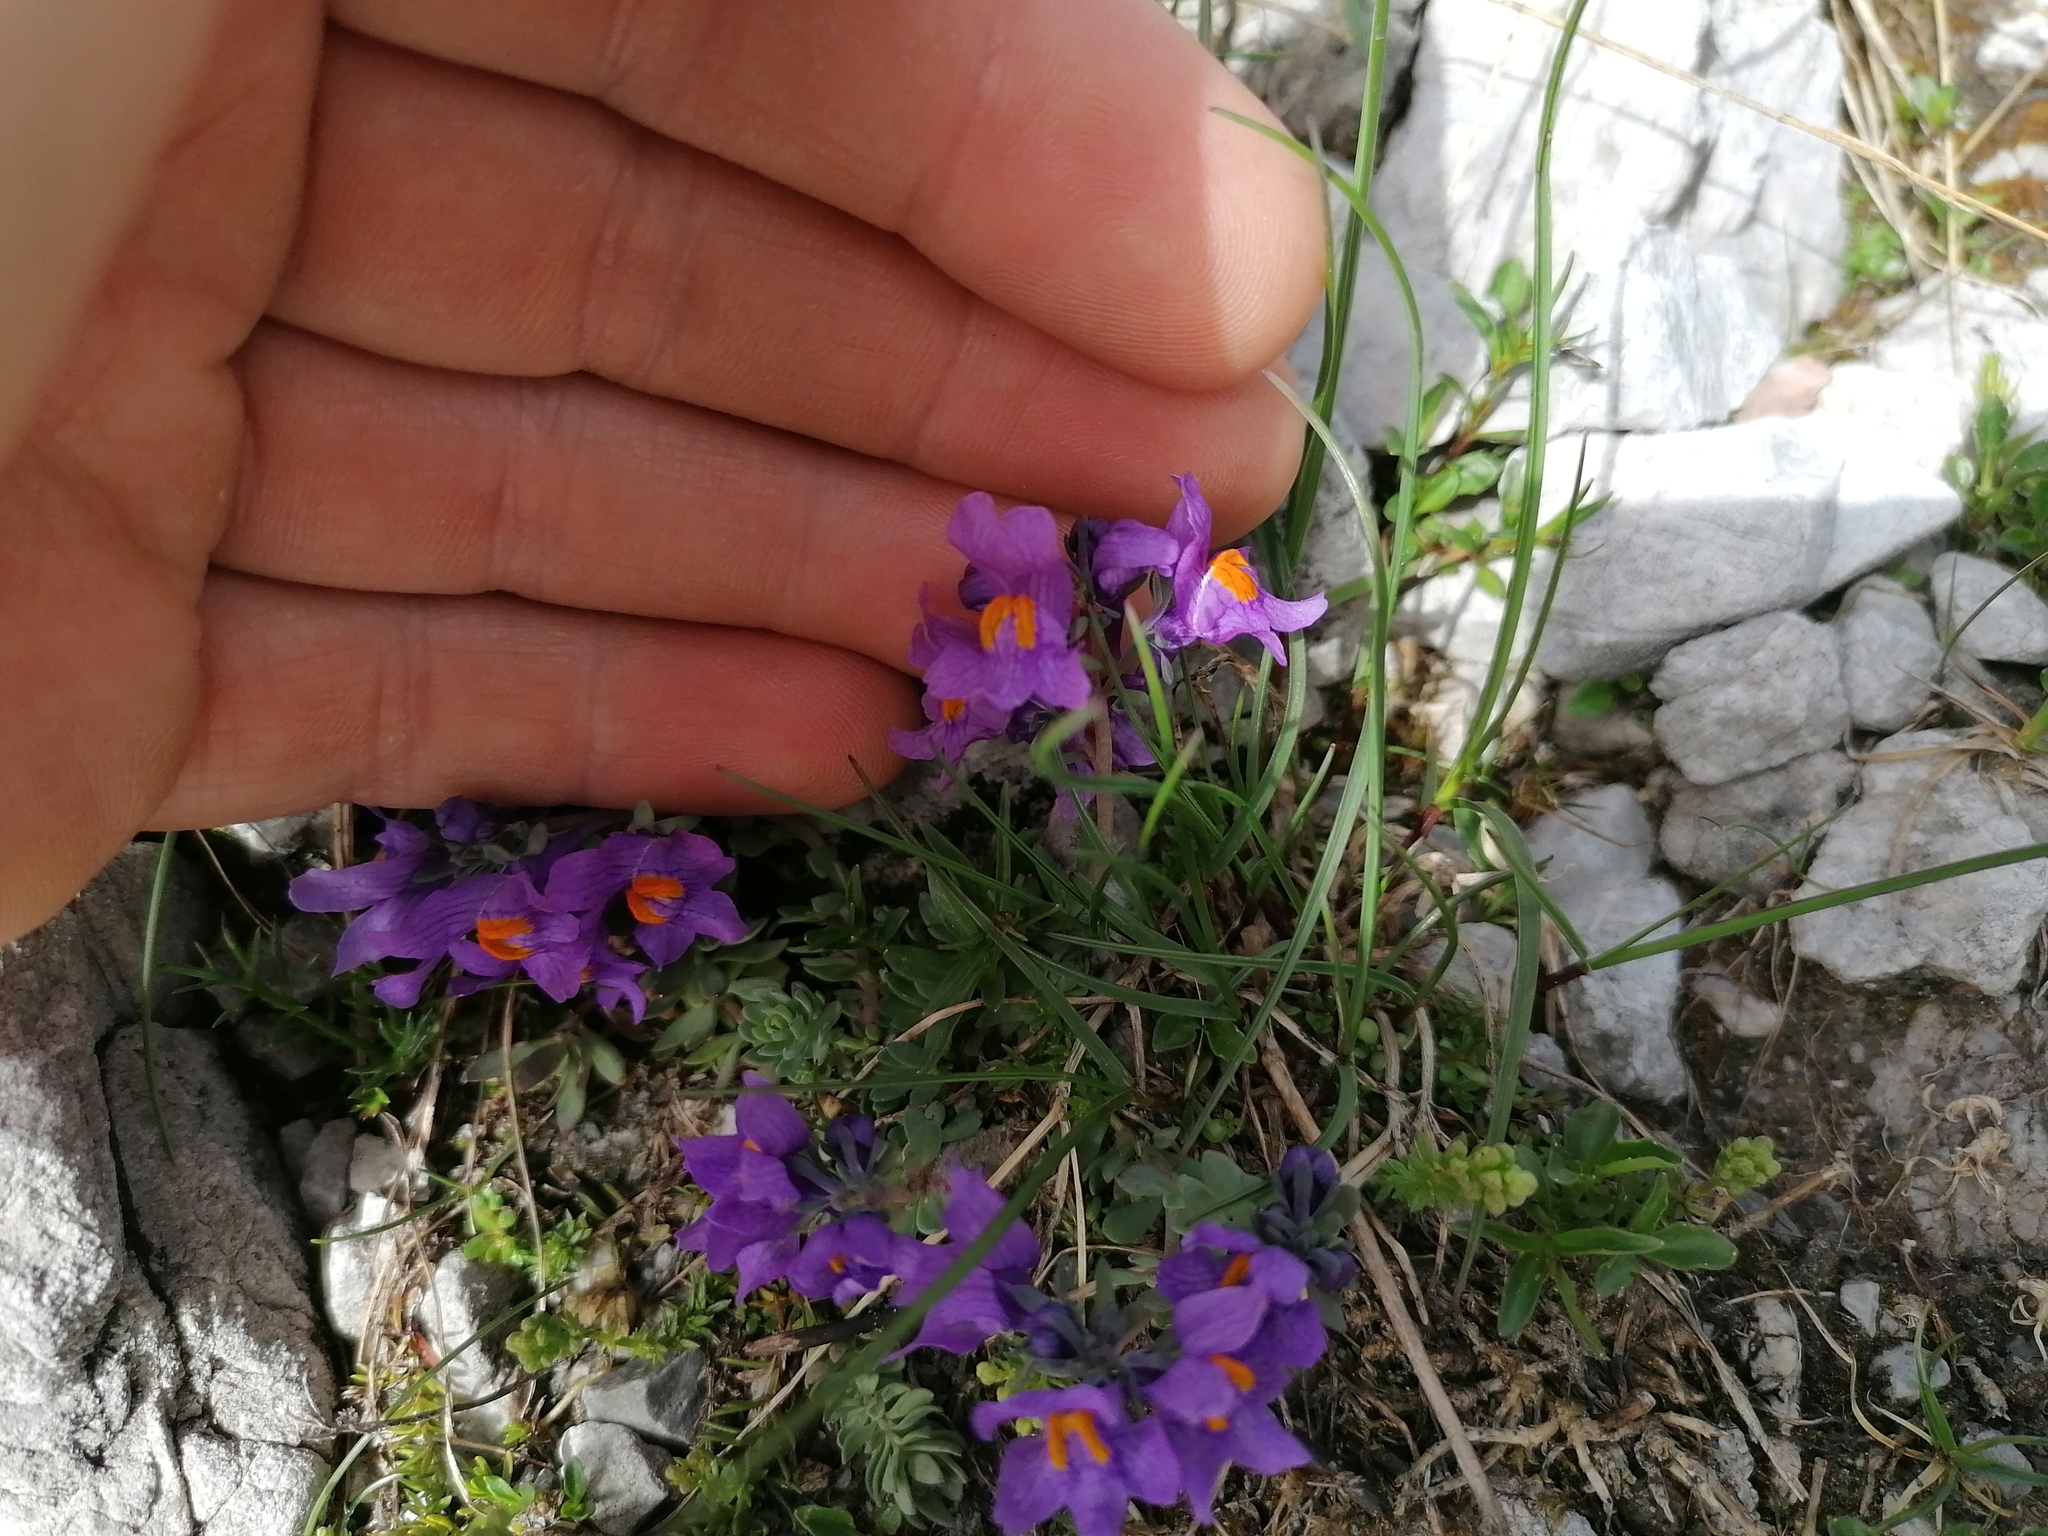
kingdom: Plantae
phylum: Tracheophyta
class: Magnoliopsida
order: Lamiales
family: Plantaginaceae
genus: Linaria
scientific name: Linaria alpina
